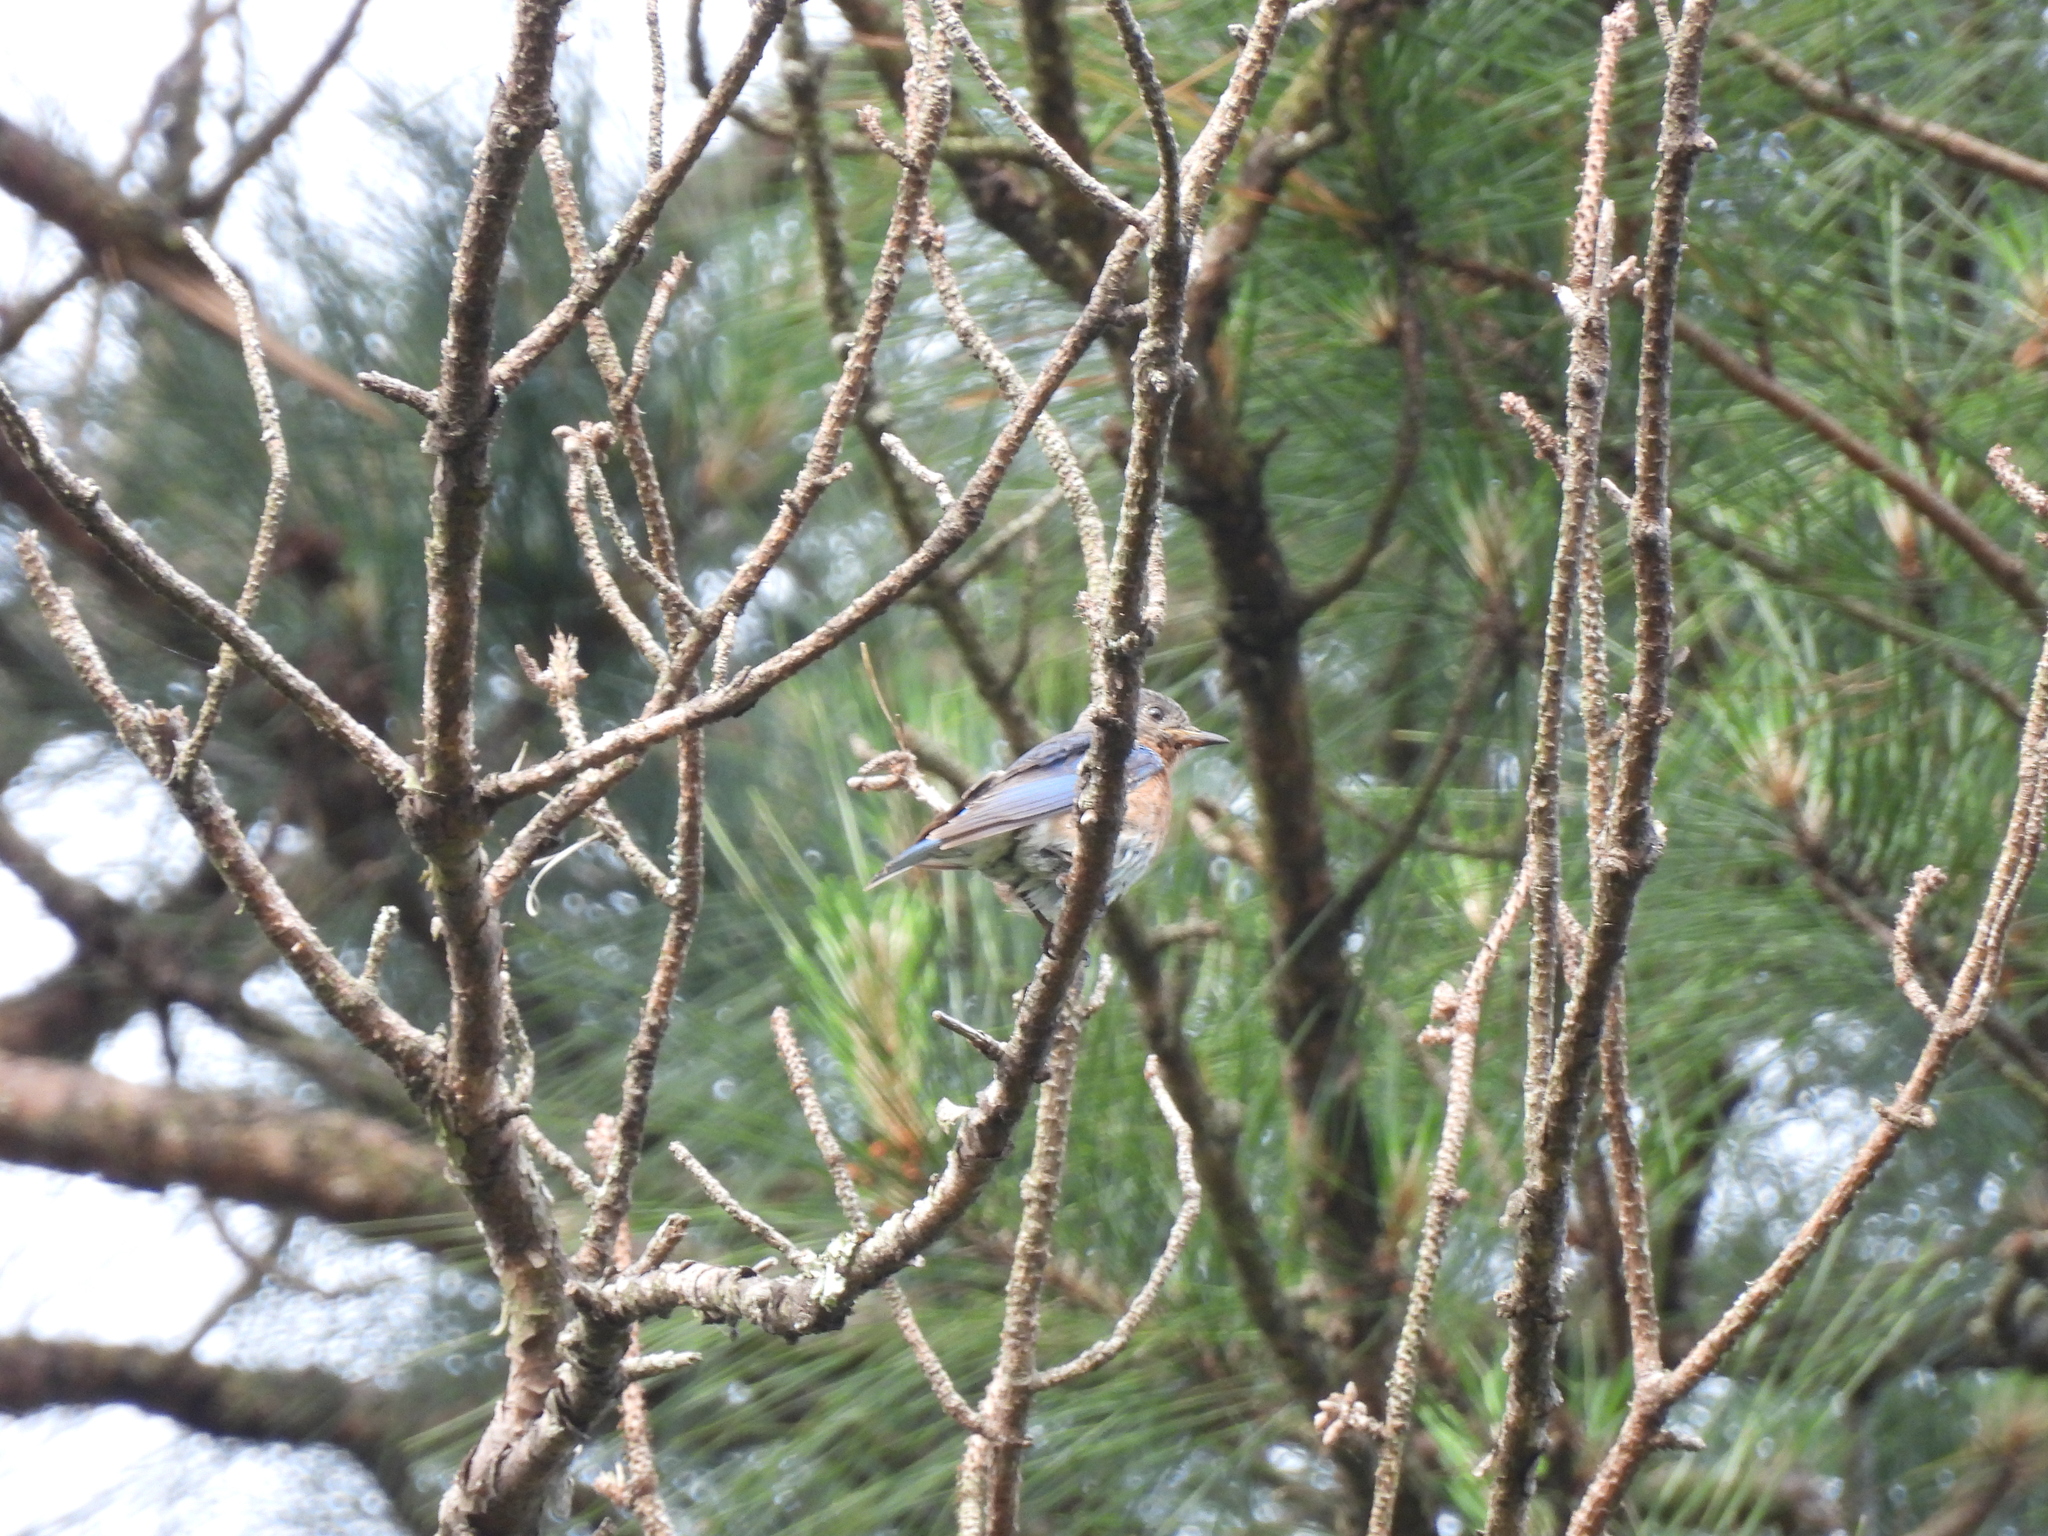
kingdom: Animalia
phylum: Chordata
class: Aves
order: Passeriformes
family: Turdidae
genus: Sialia
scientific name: Sialia sialis
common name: Eastern bluebird
